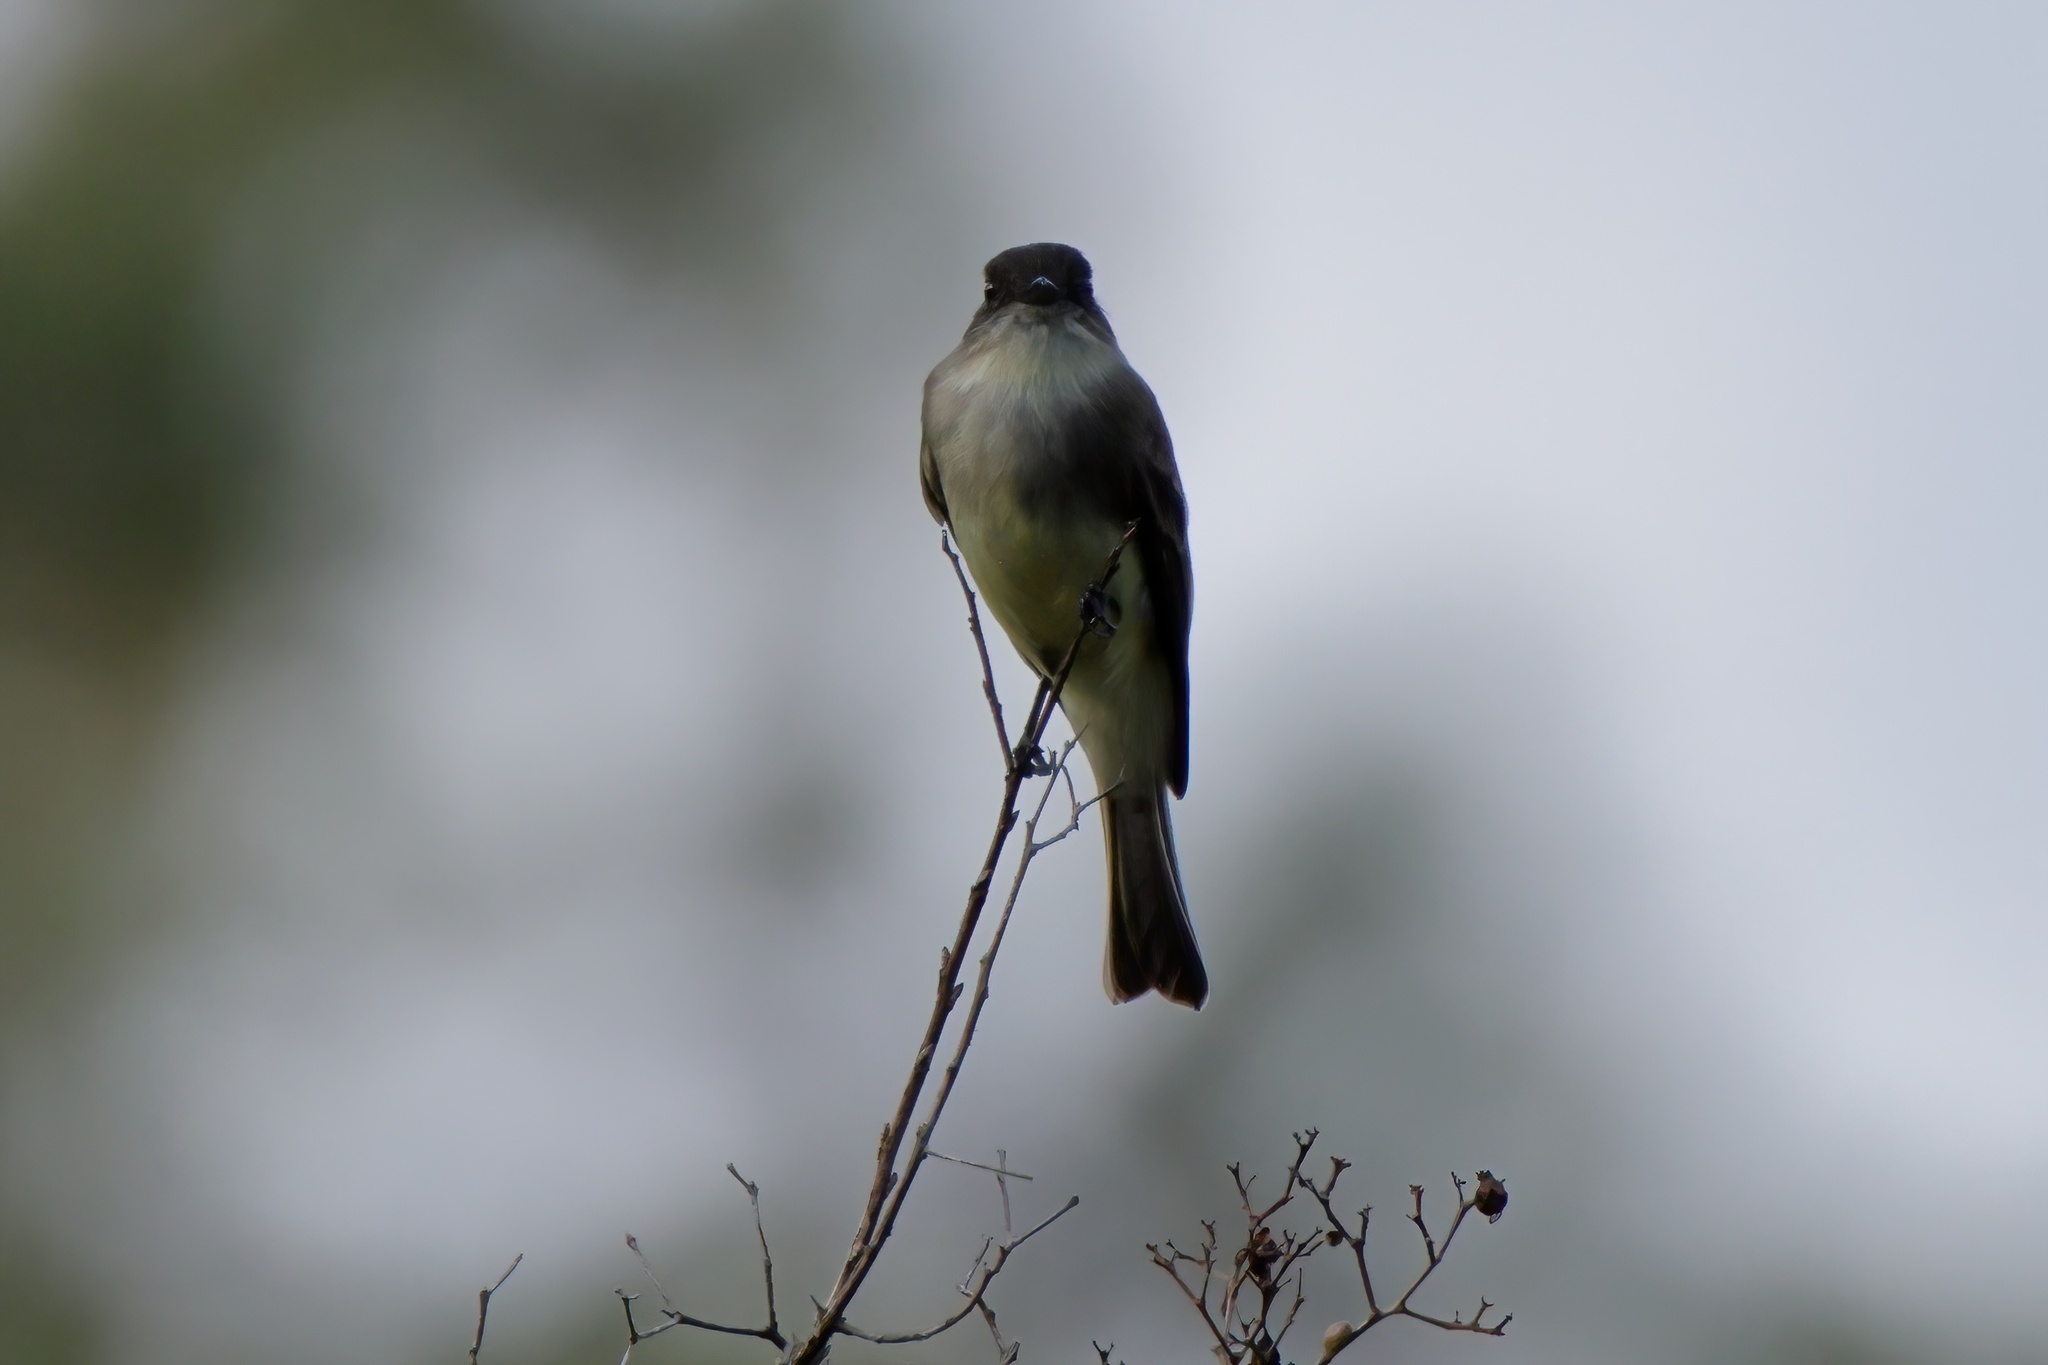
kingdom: Animalia
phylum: Chordata
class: Aves
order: Passeriformes
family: Tyrannidae
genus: Sayornis
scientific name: Sayornis phoebe
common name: Eastern phoebe
